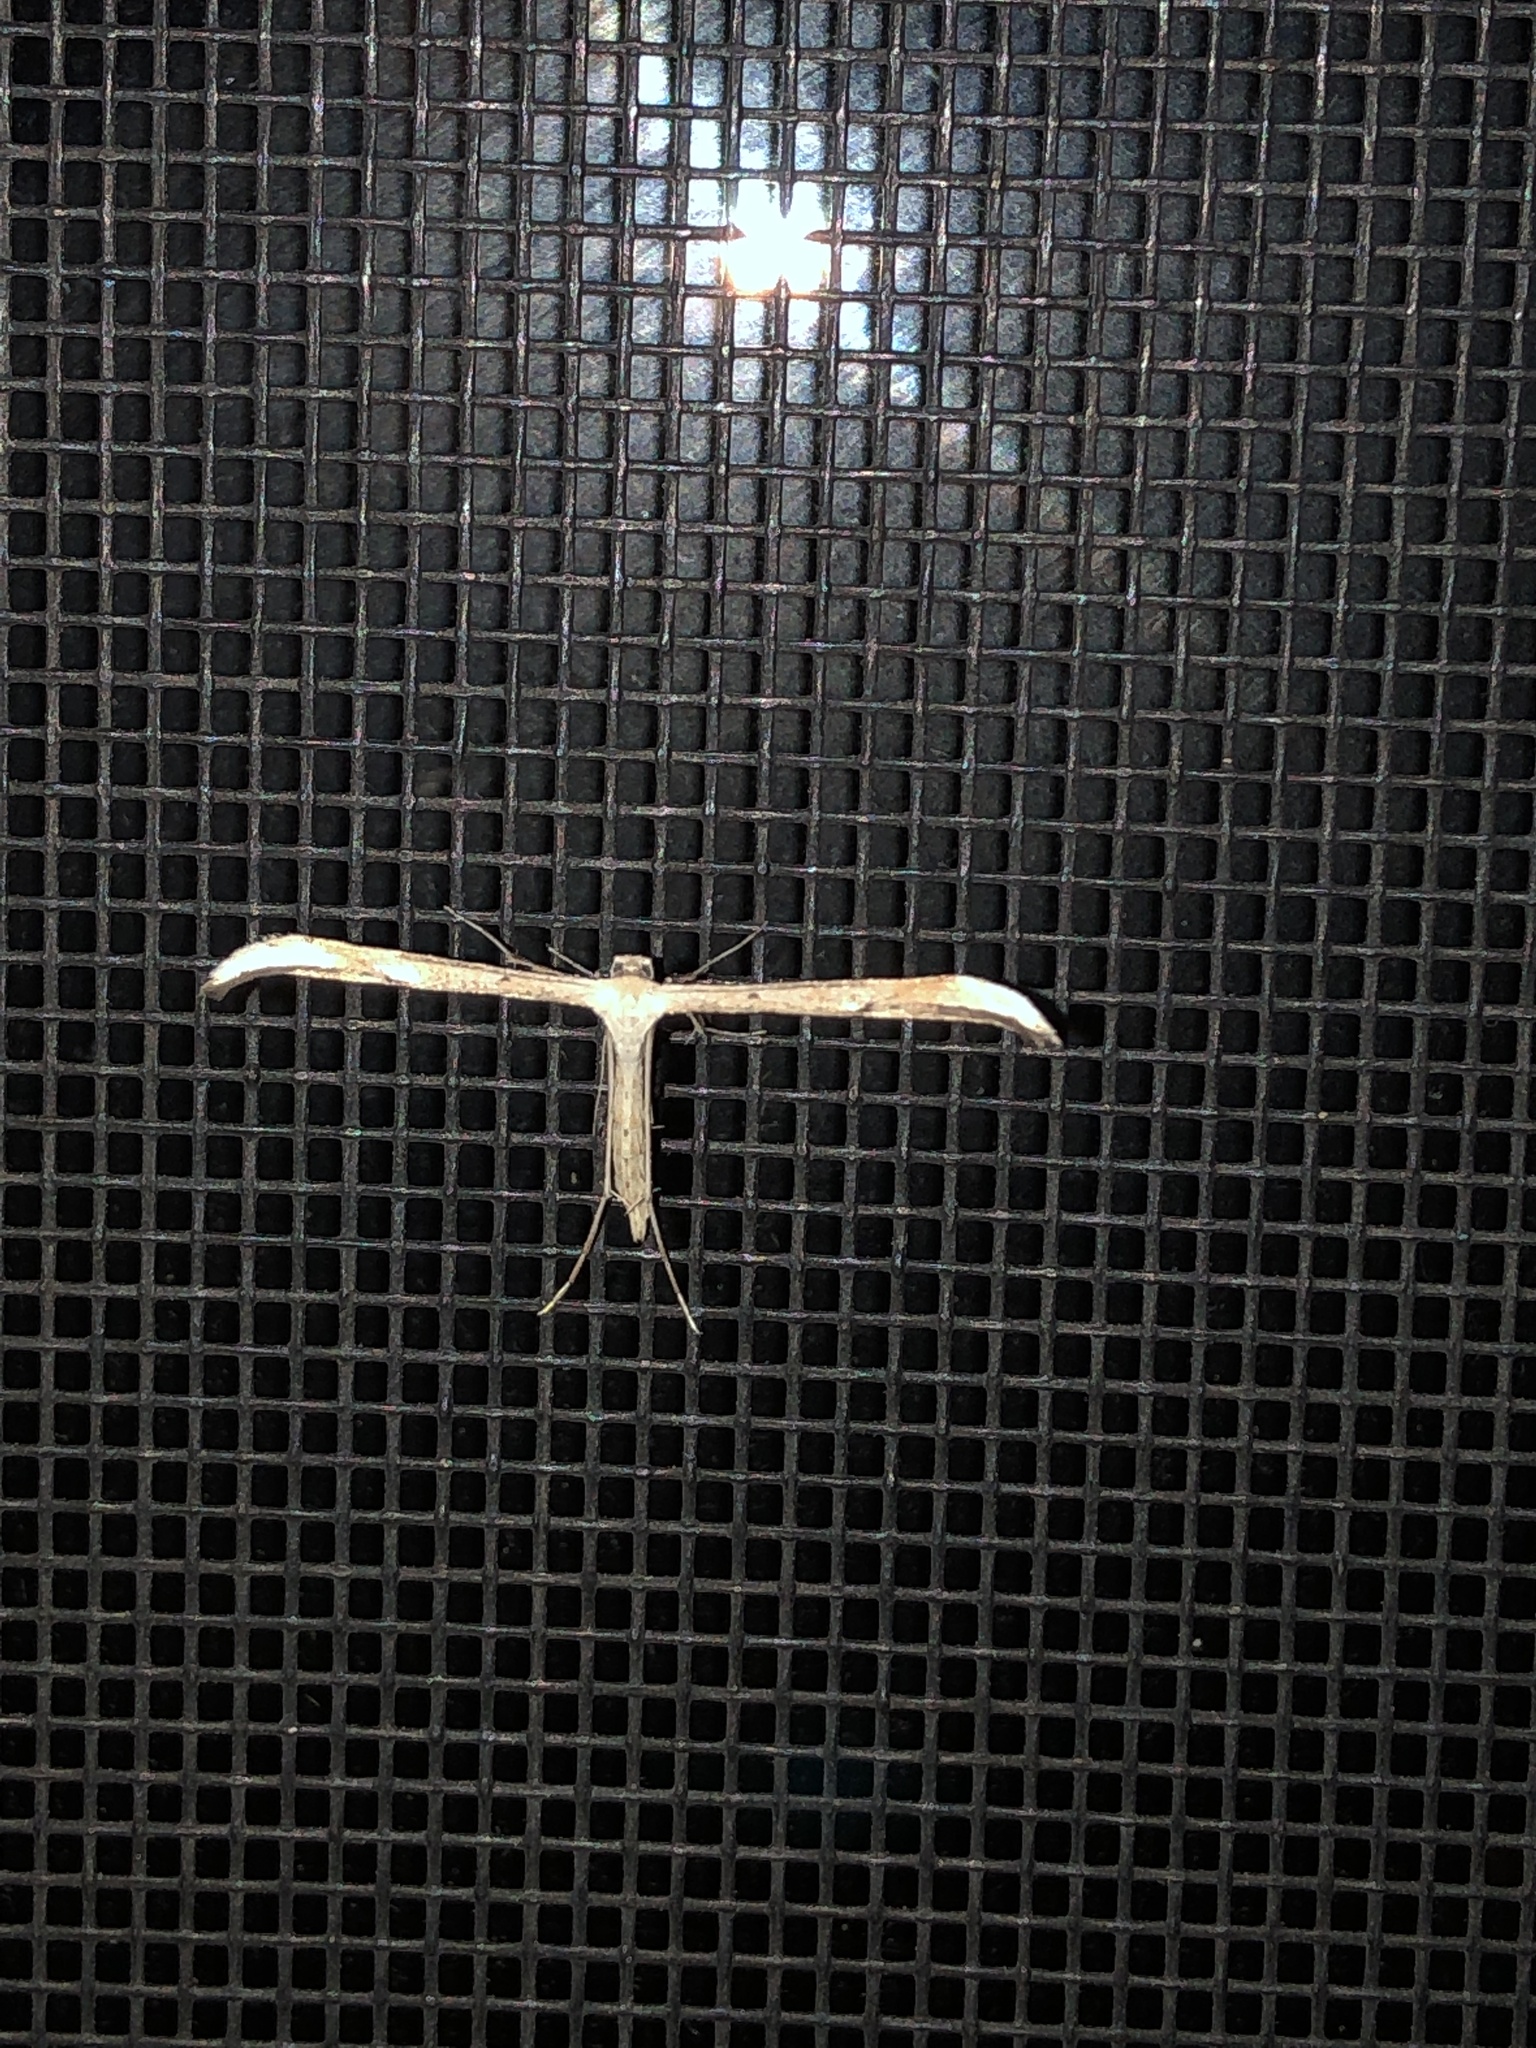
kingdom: Animalia
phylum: Arthropoda
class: Insecta
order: Lepidoptera
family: Pterophoridae
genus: Emmelina
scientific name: Emmelina monodactyla
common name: Common plume
